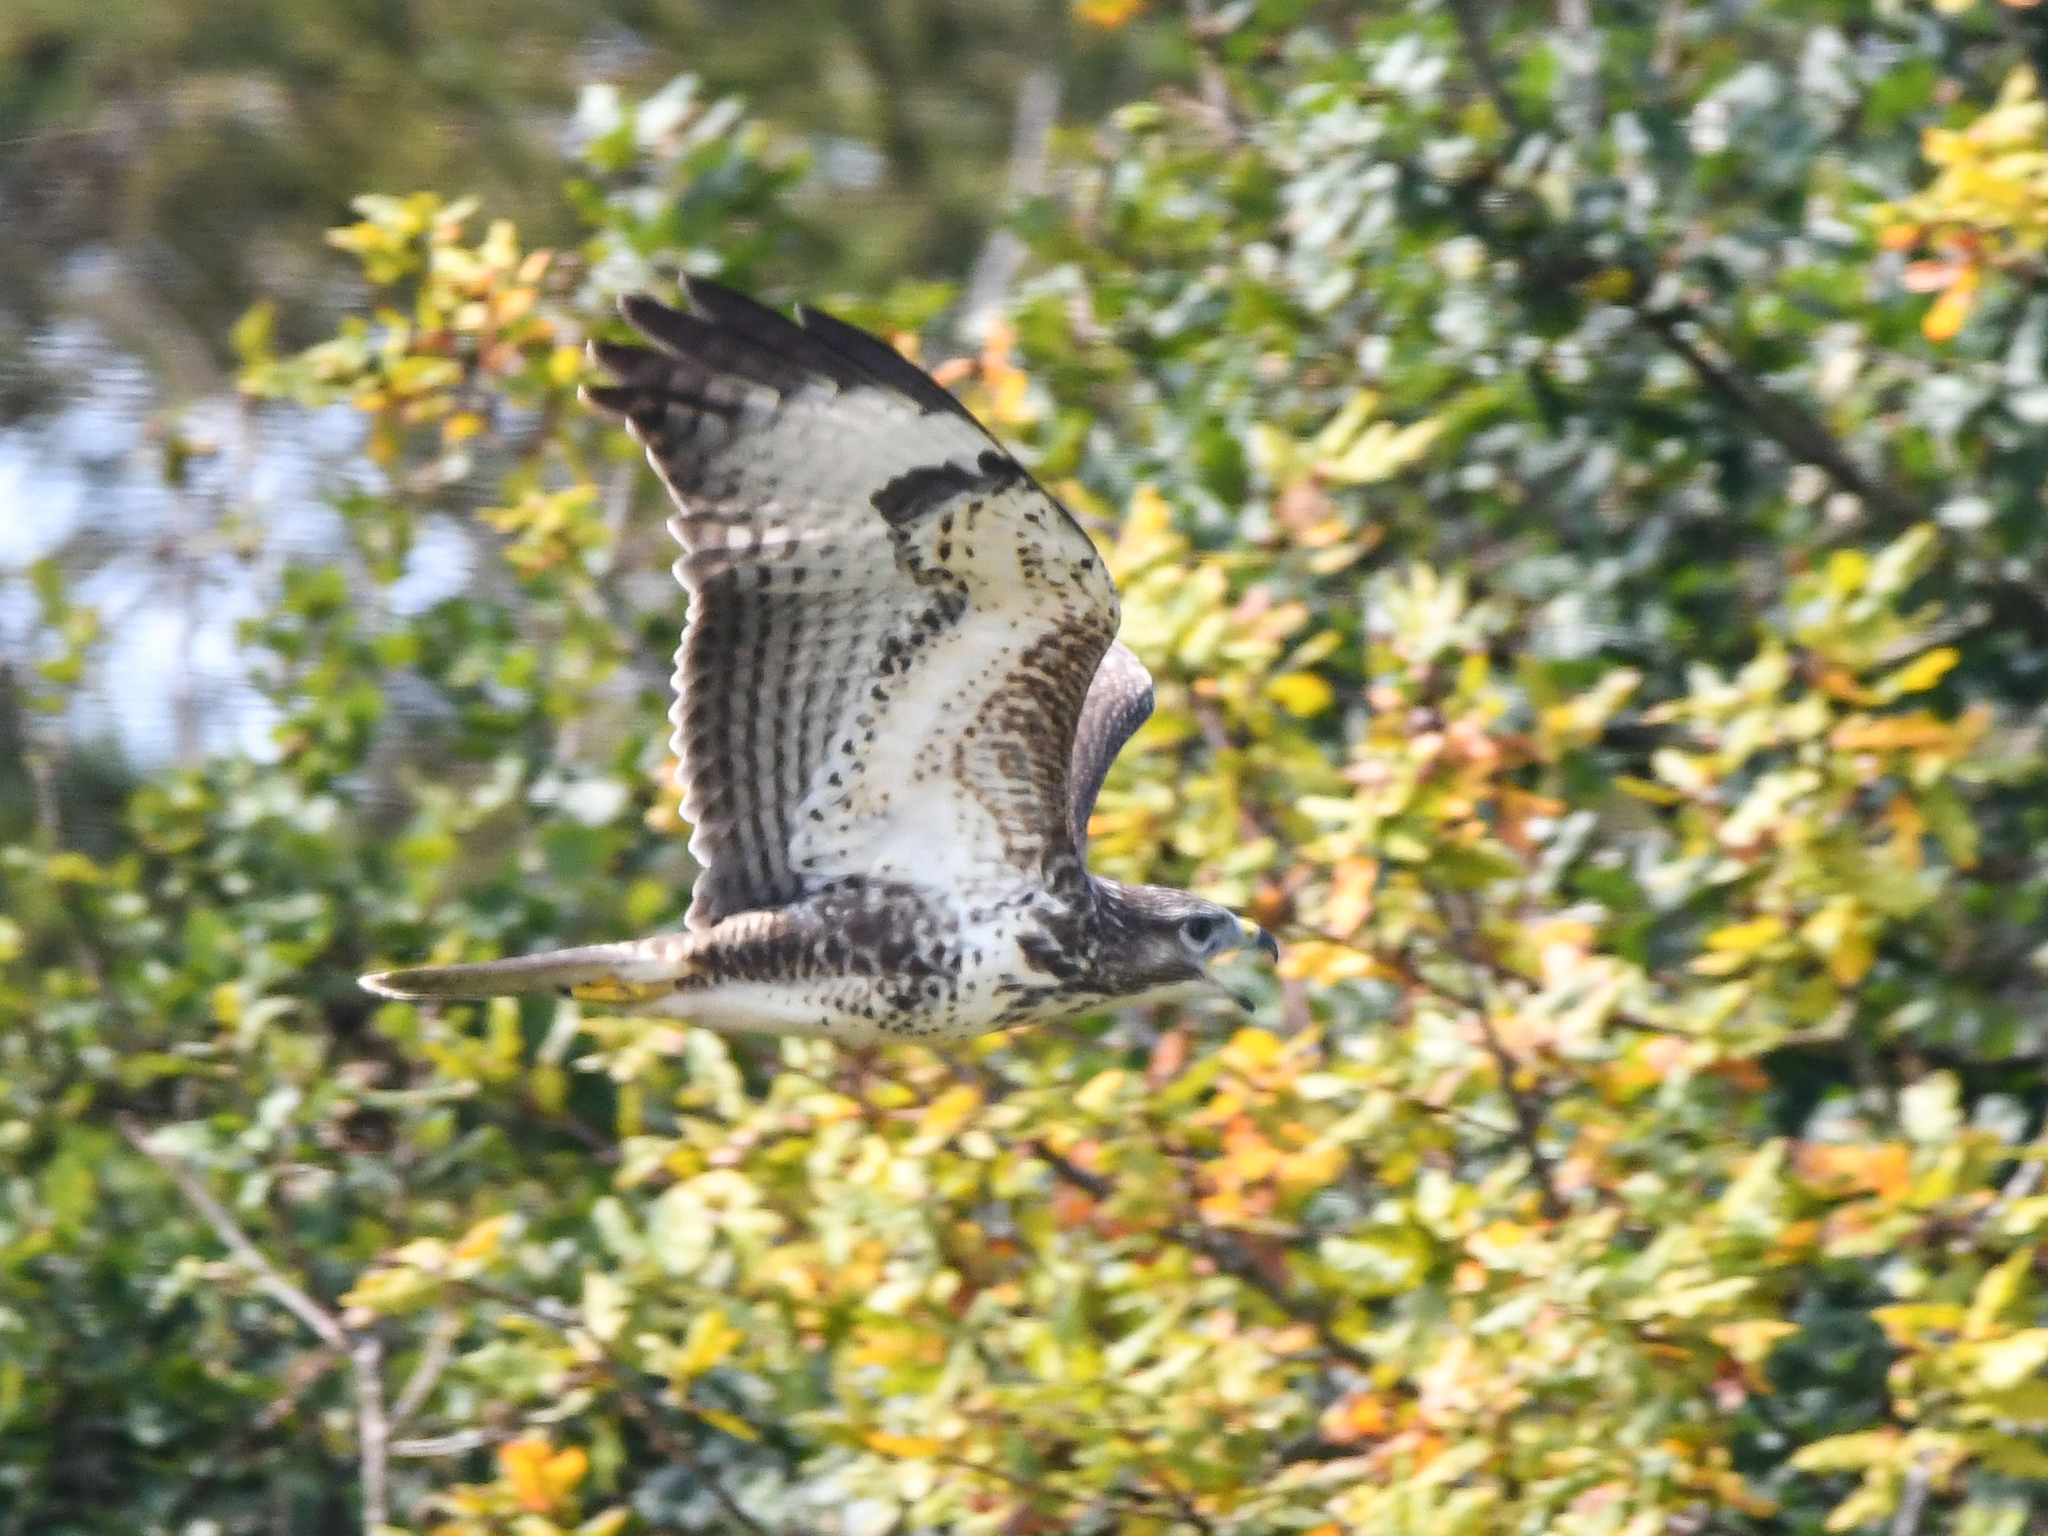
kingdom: Animalia
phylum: Chordata
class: Aves
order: Accipitriformes
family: Accipitridae
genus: Buteo
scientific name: Buteo buteo
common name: Common buzzard
